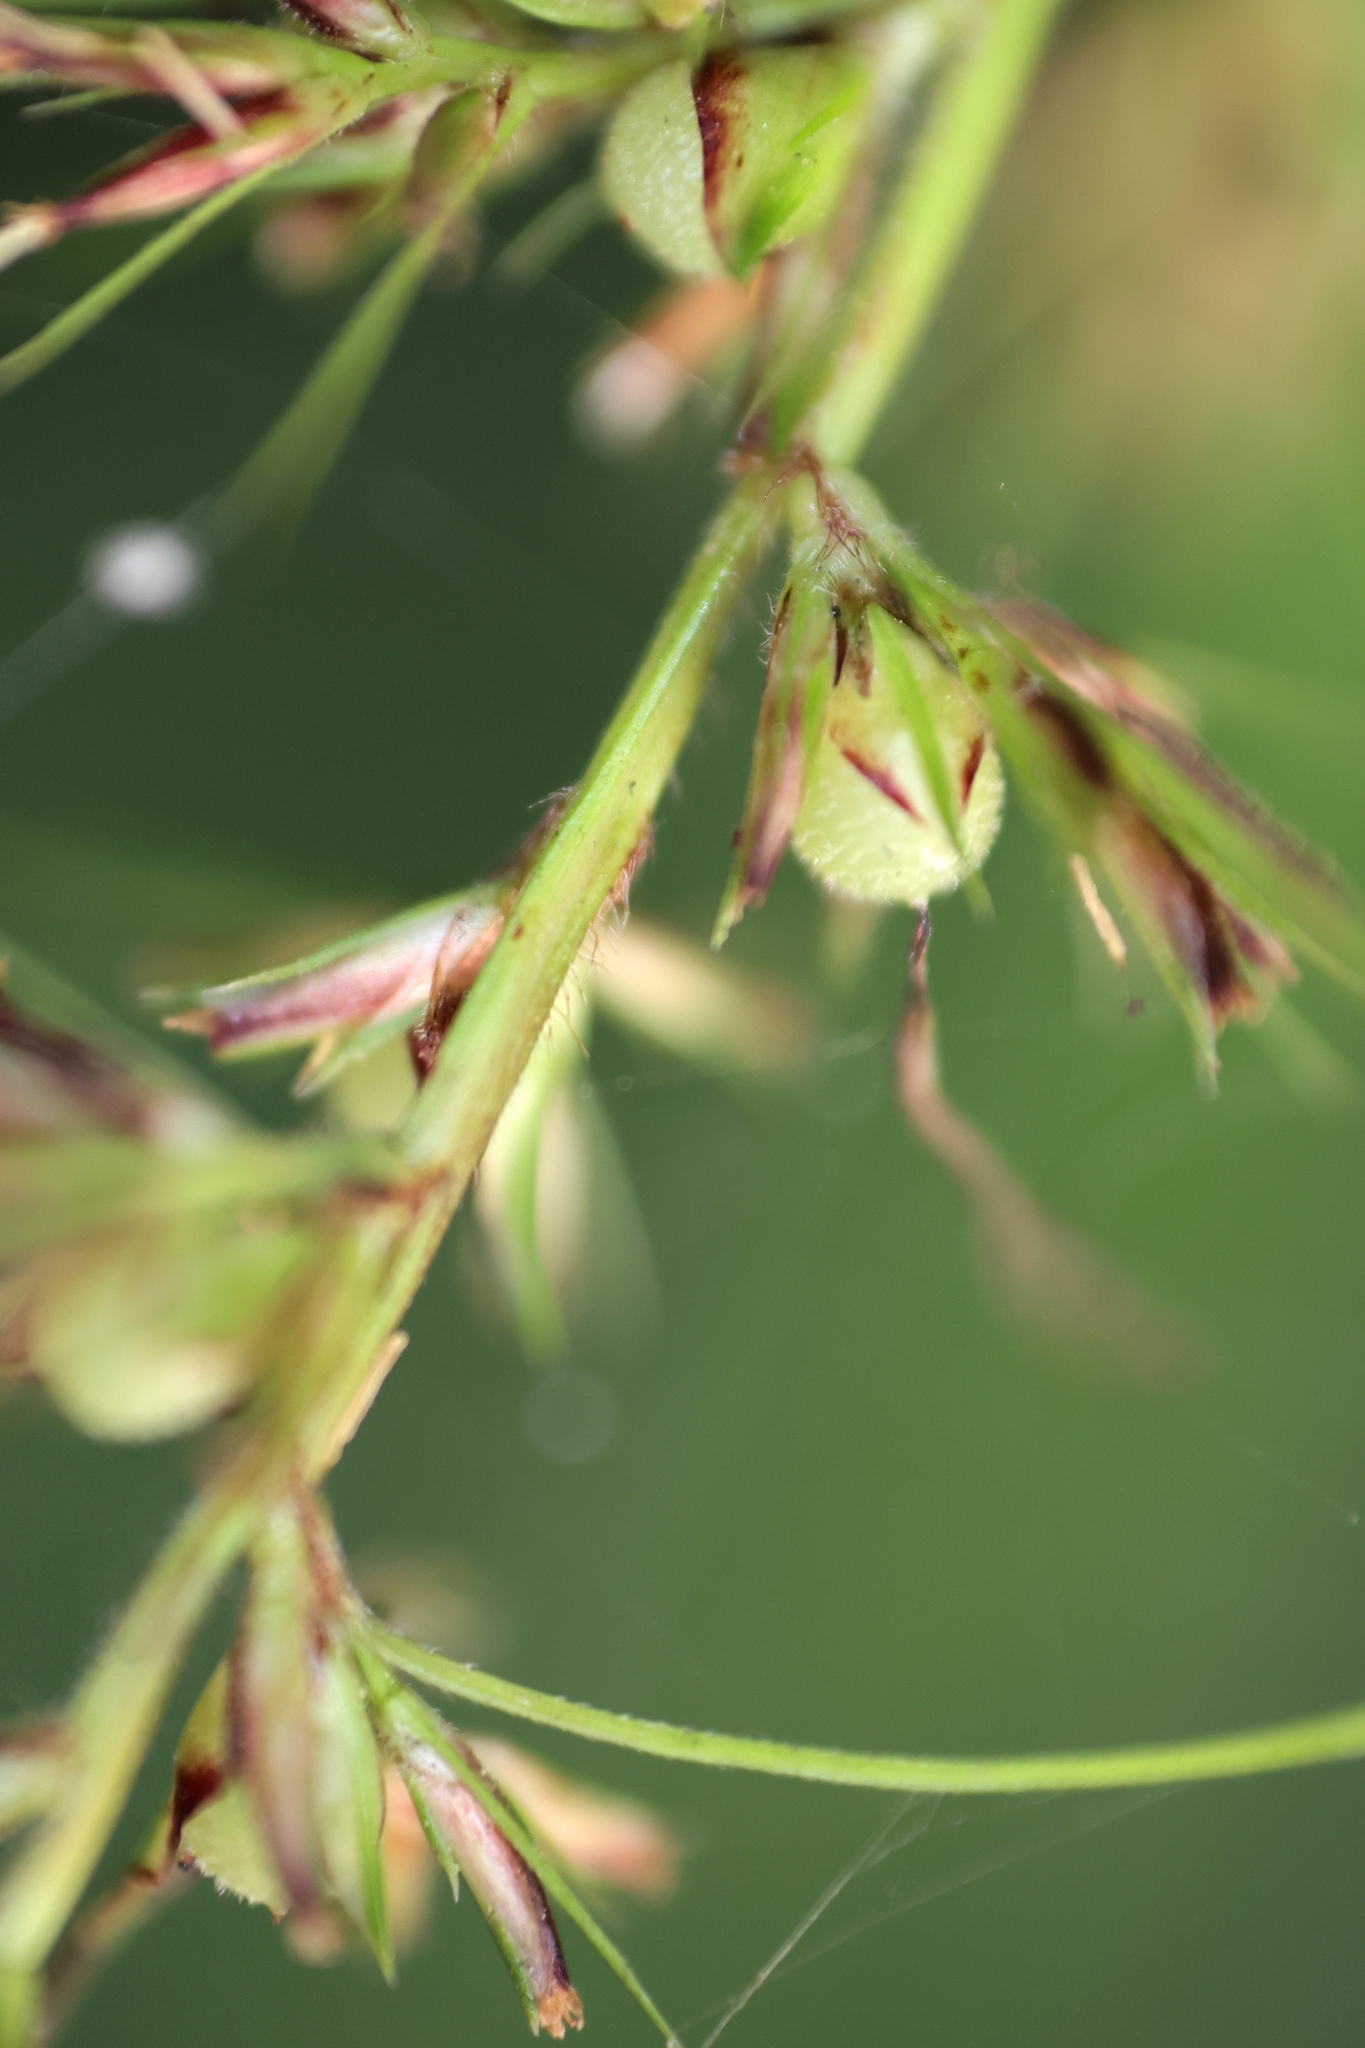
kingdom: Plantae
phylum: Tracheophyta
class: Liliopsida
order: Poales
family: Cyperaceae
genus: Scleria
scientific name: Scleria ciliaris
